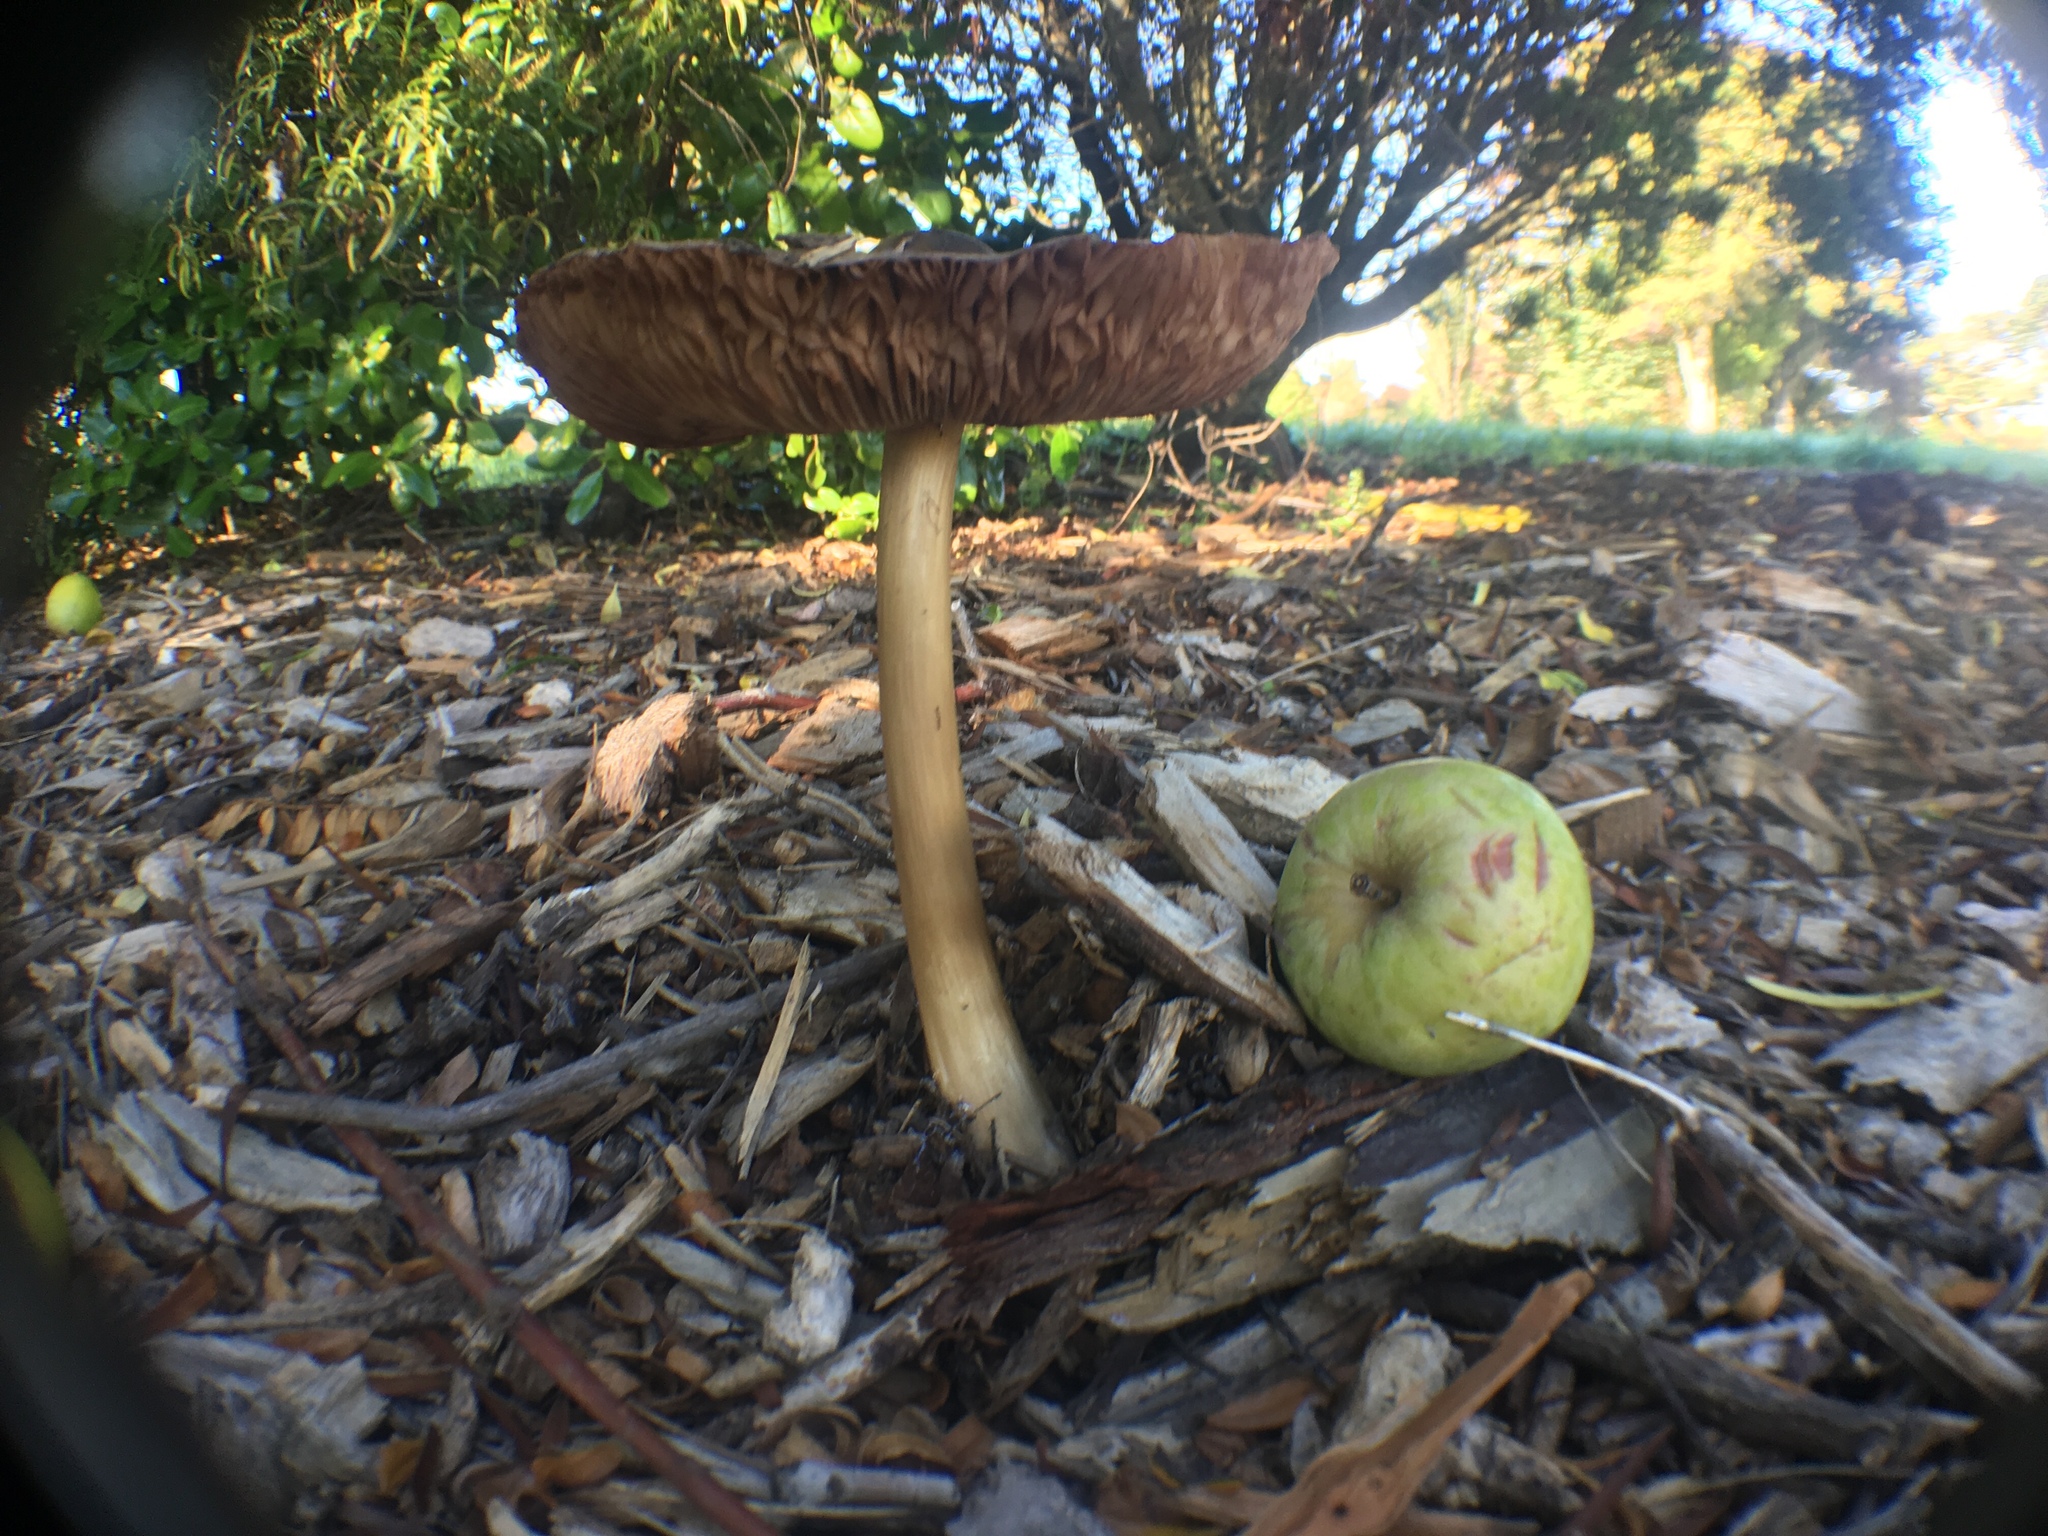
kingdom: Fungi
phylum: Basidiomycota
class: Agaricomycetes
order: Agaricales
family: Pluteaceae
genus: Volvopluteus
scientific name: Volvopluteus gloiocephalus
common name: Stubble rosegill
